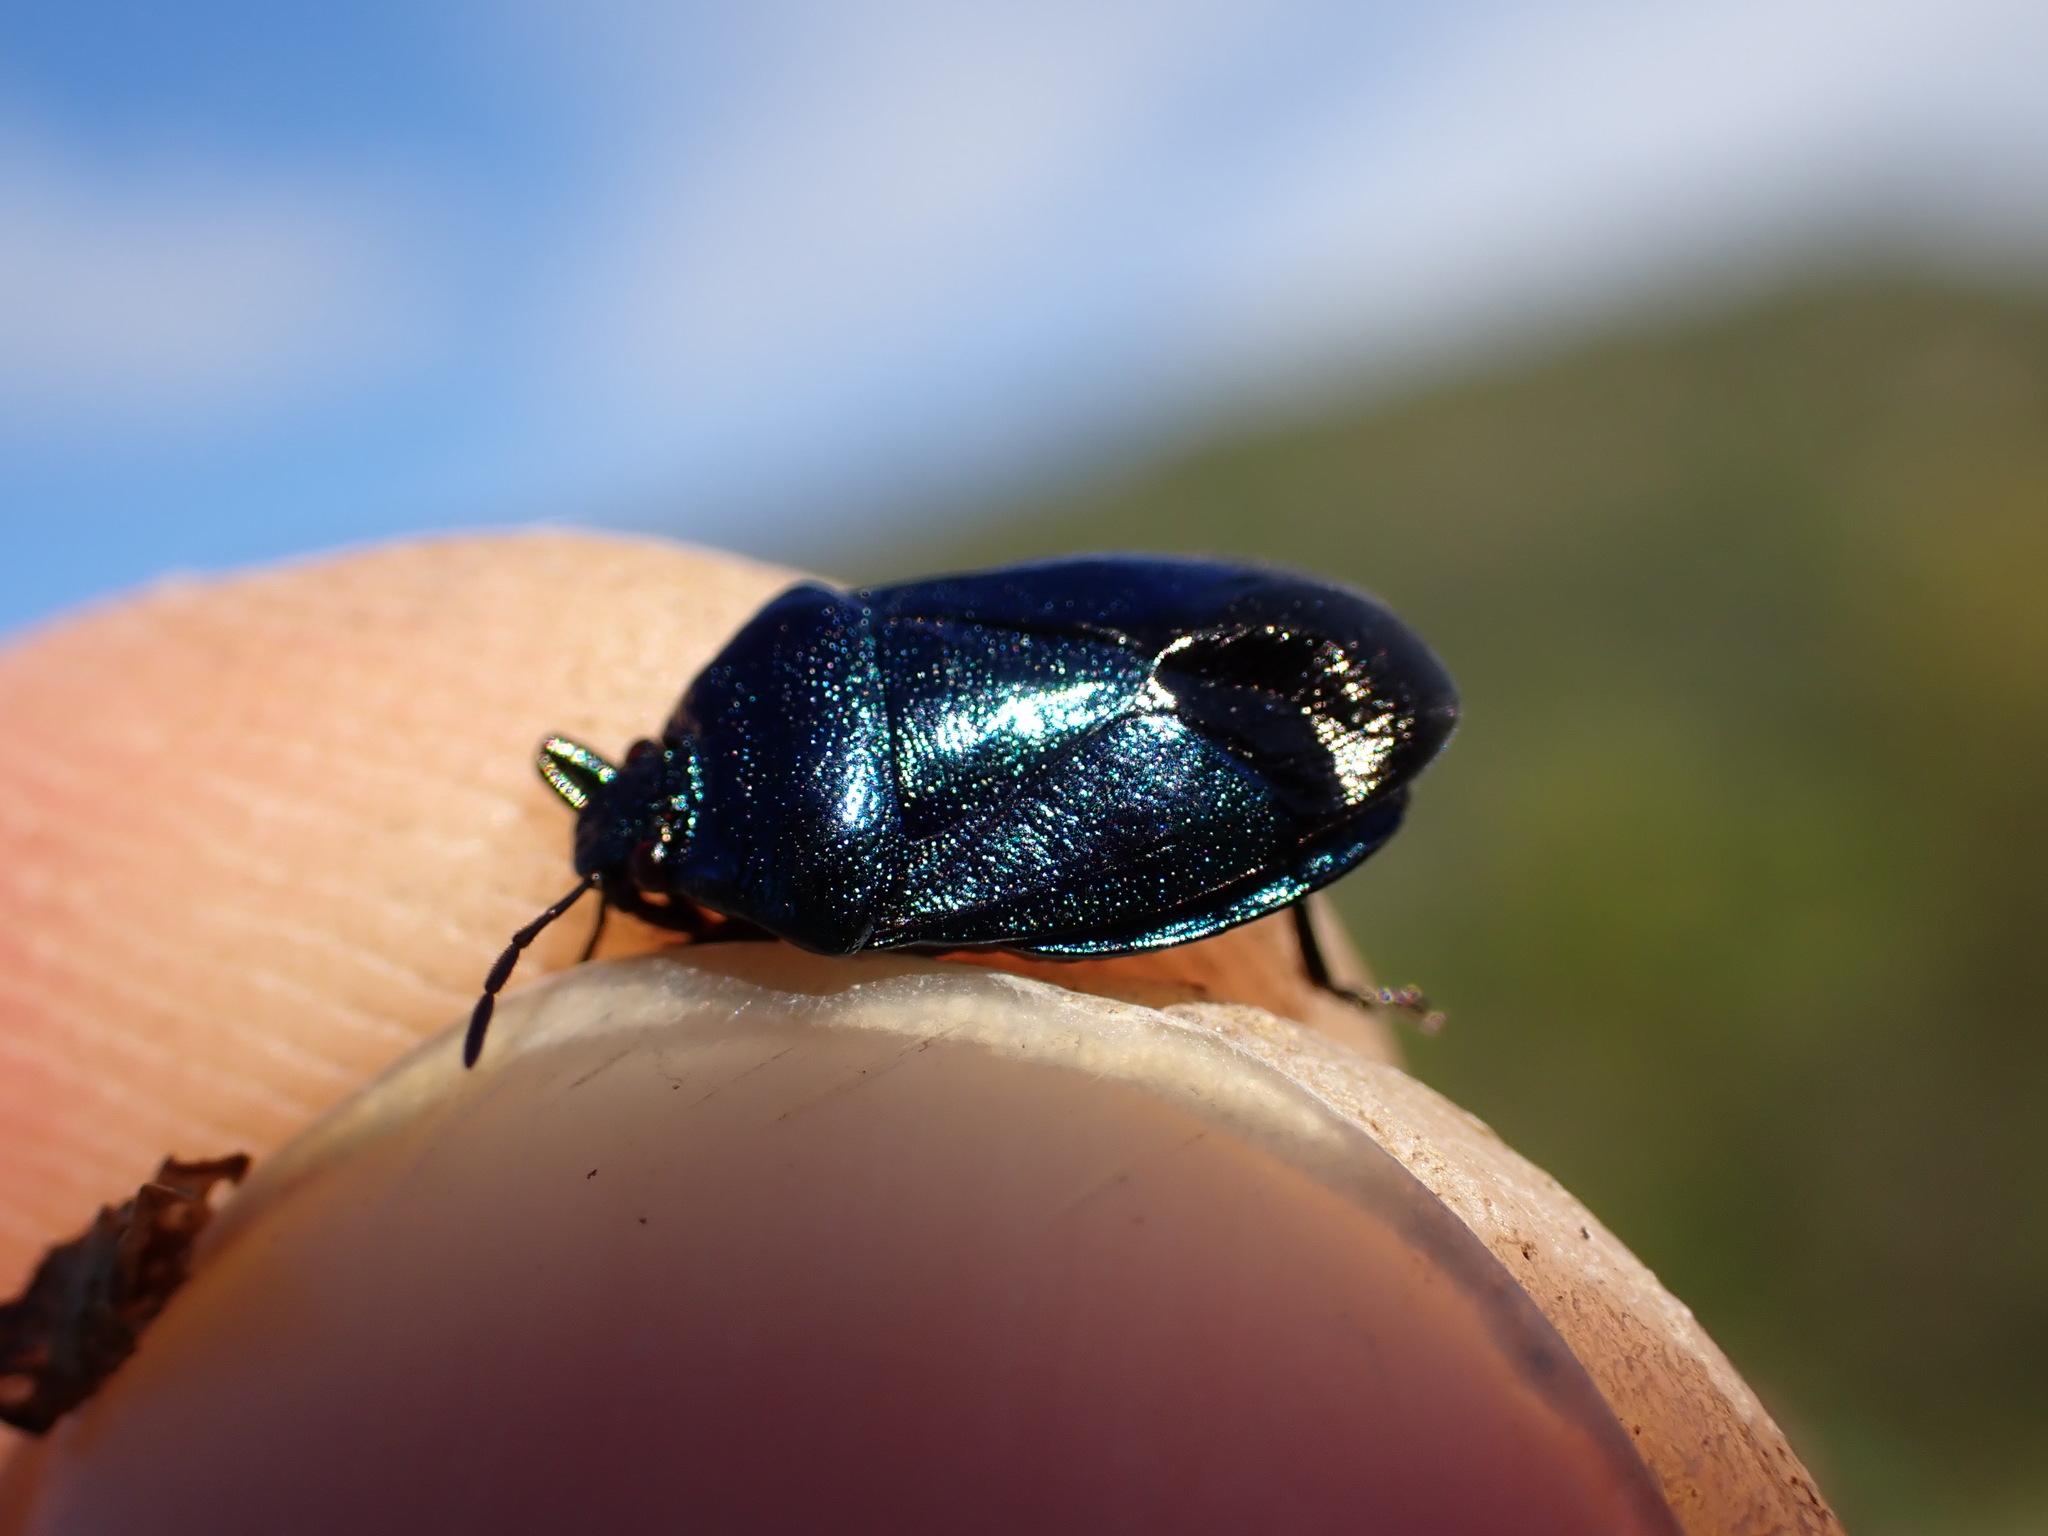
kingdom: Animalia
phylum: Arthropoda
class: Insecta
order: Hemiptera
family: Pentatomidae
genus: Zicrona
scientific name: Zicrona caerulea
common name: Blue shieldbug
